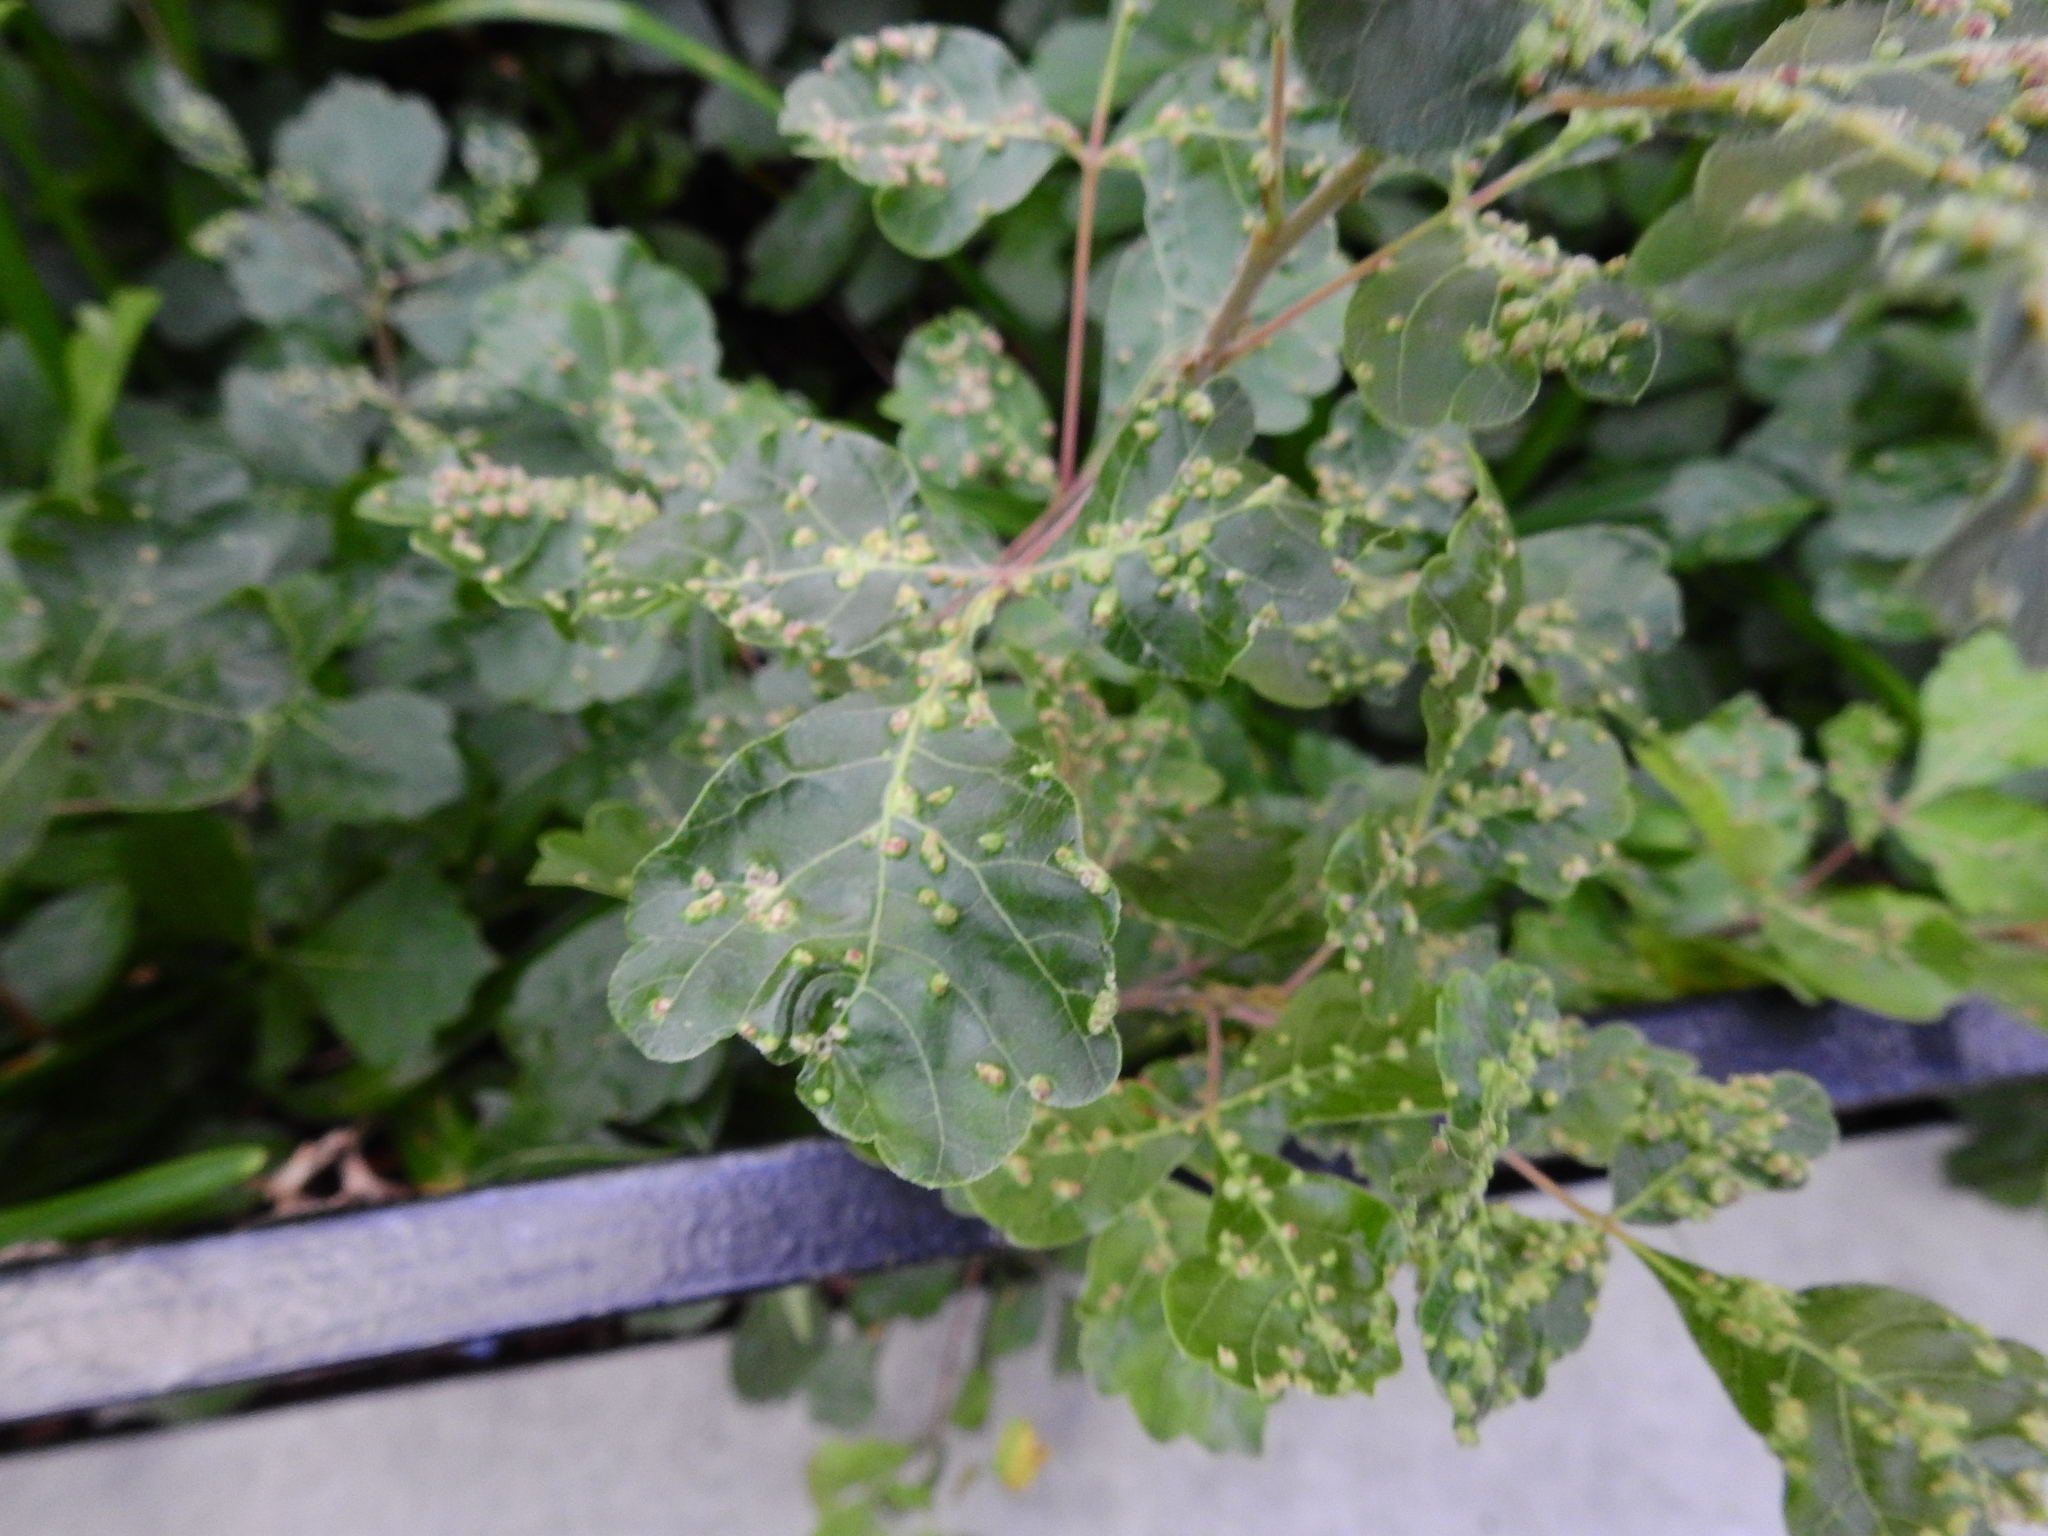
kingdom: Animalia
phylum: Arthropoda
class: Arachnida
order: Trombidiformes
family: Eriophyidae
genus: Aculops
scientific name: Aculops
